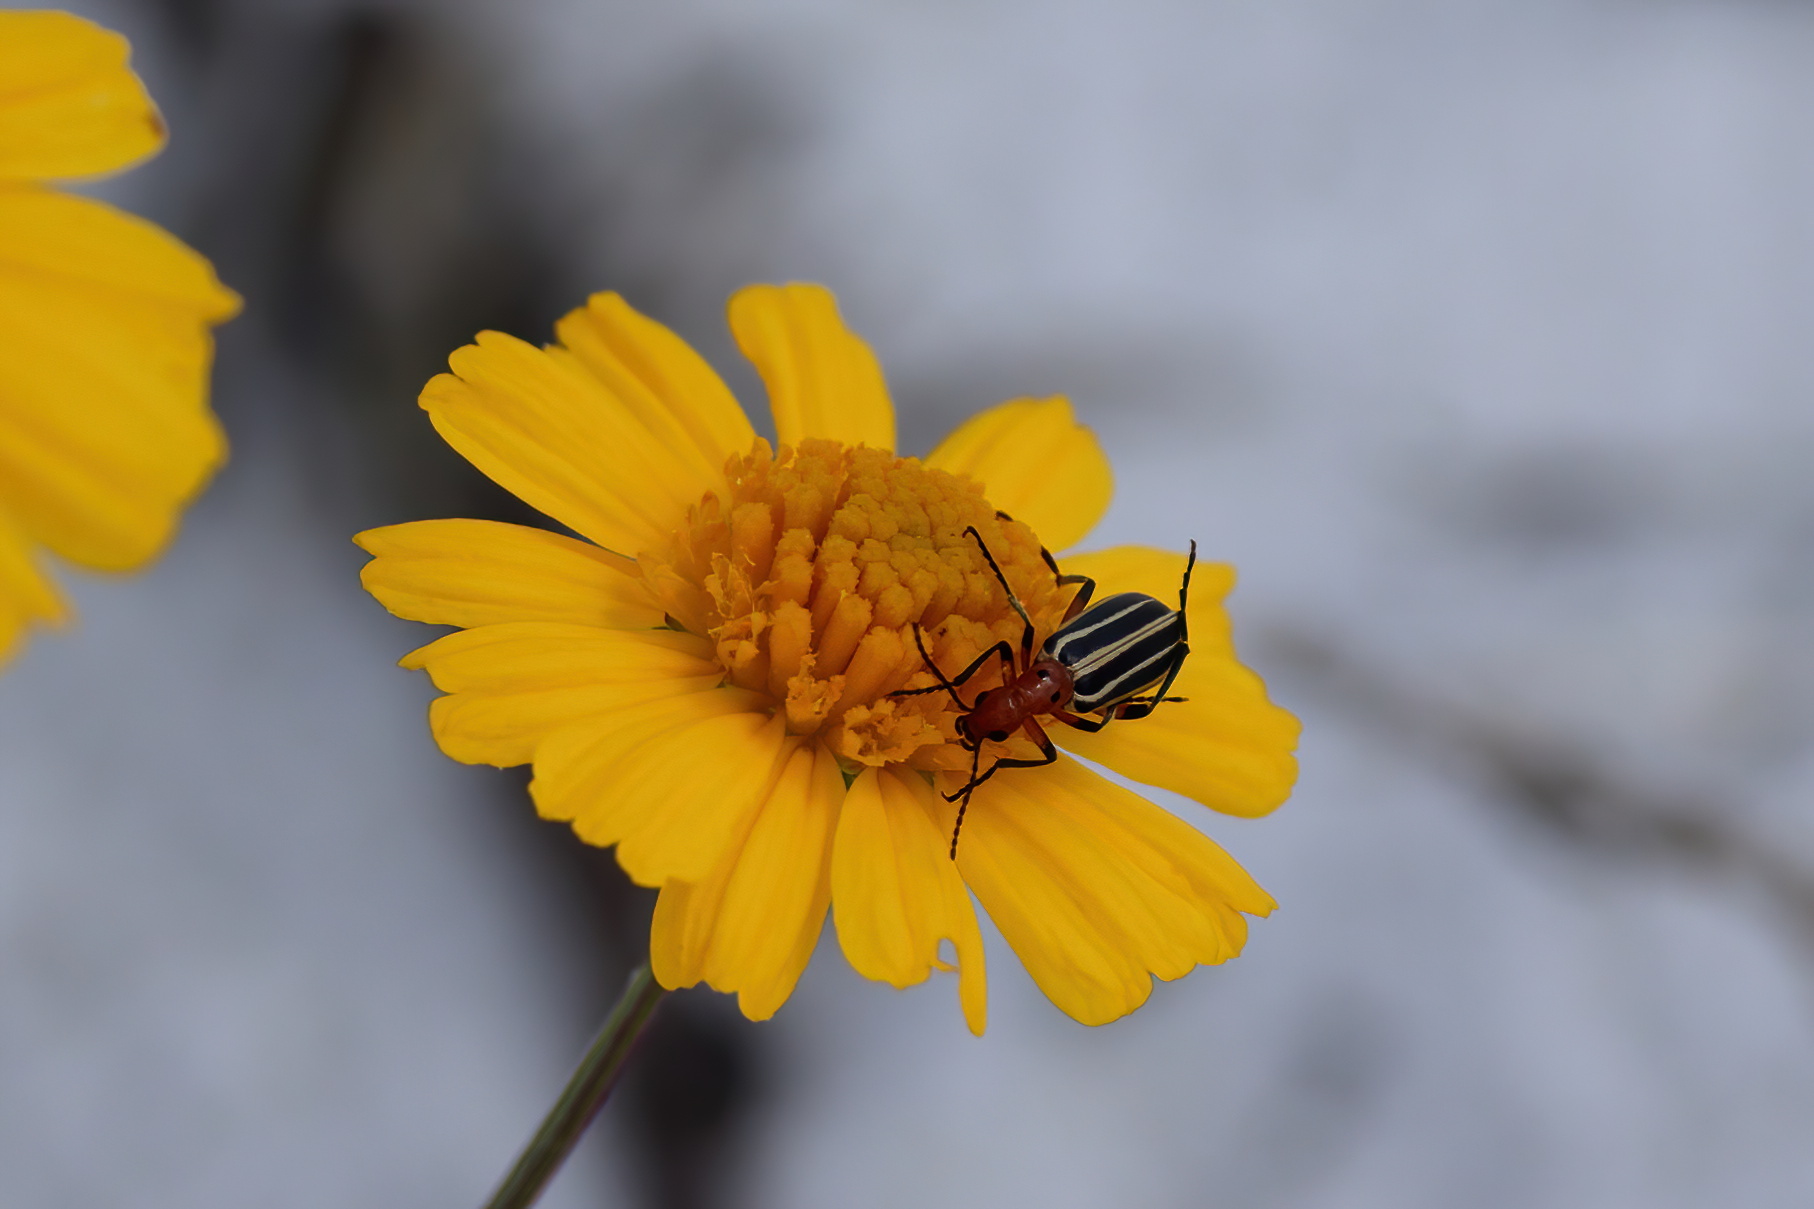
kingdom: Animalia
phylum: Arthropoda
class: Insecta
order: Coleoptera
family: Meloidae
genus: Pyrota
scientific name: Pyrota
